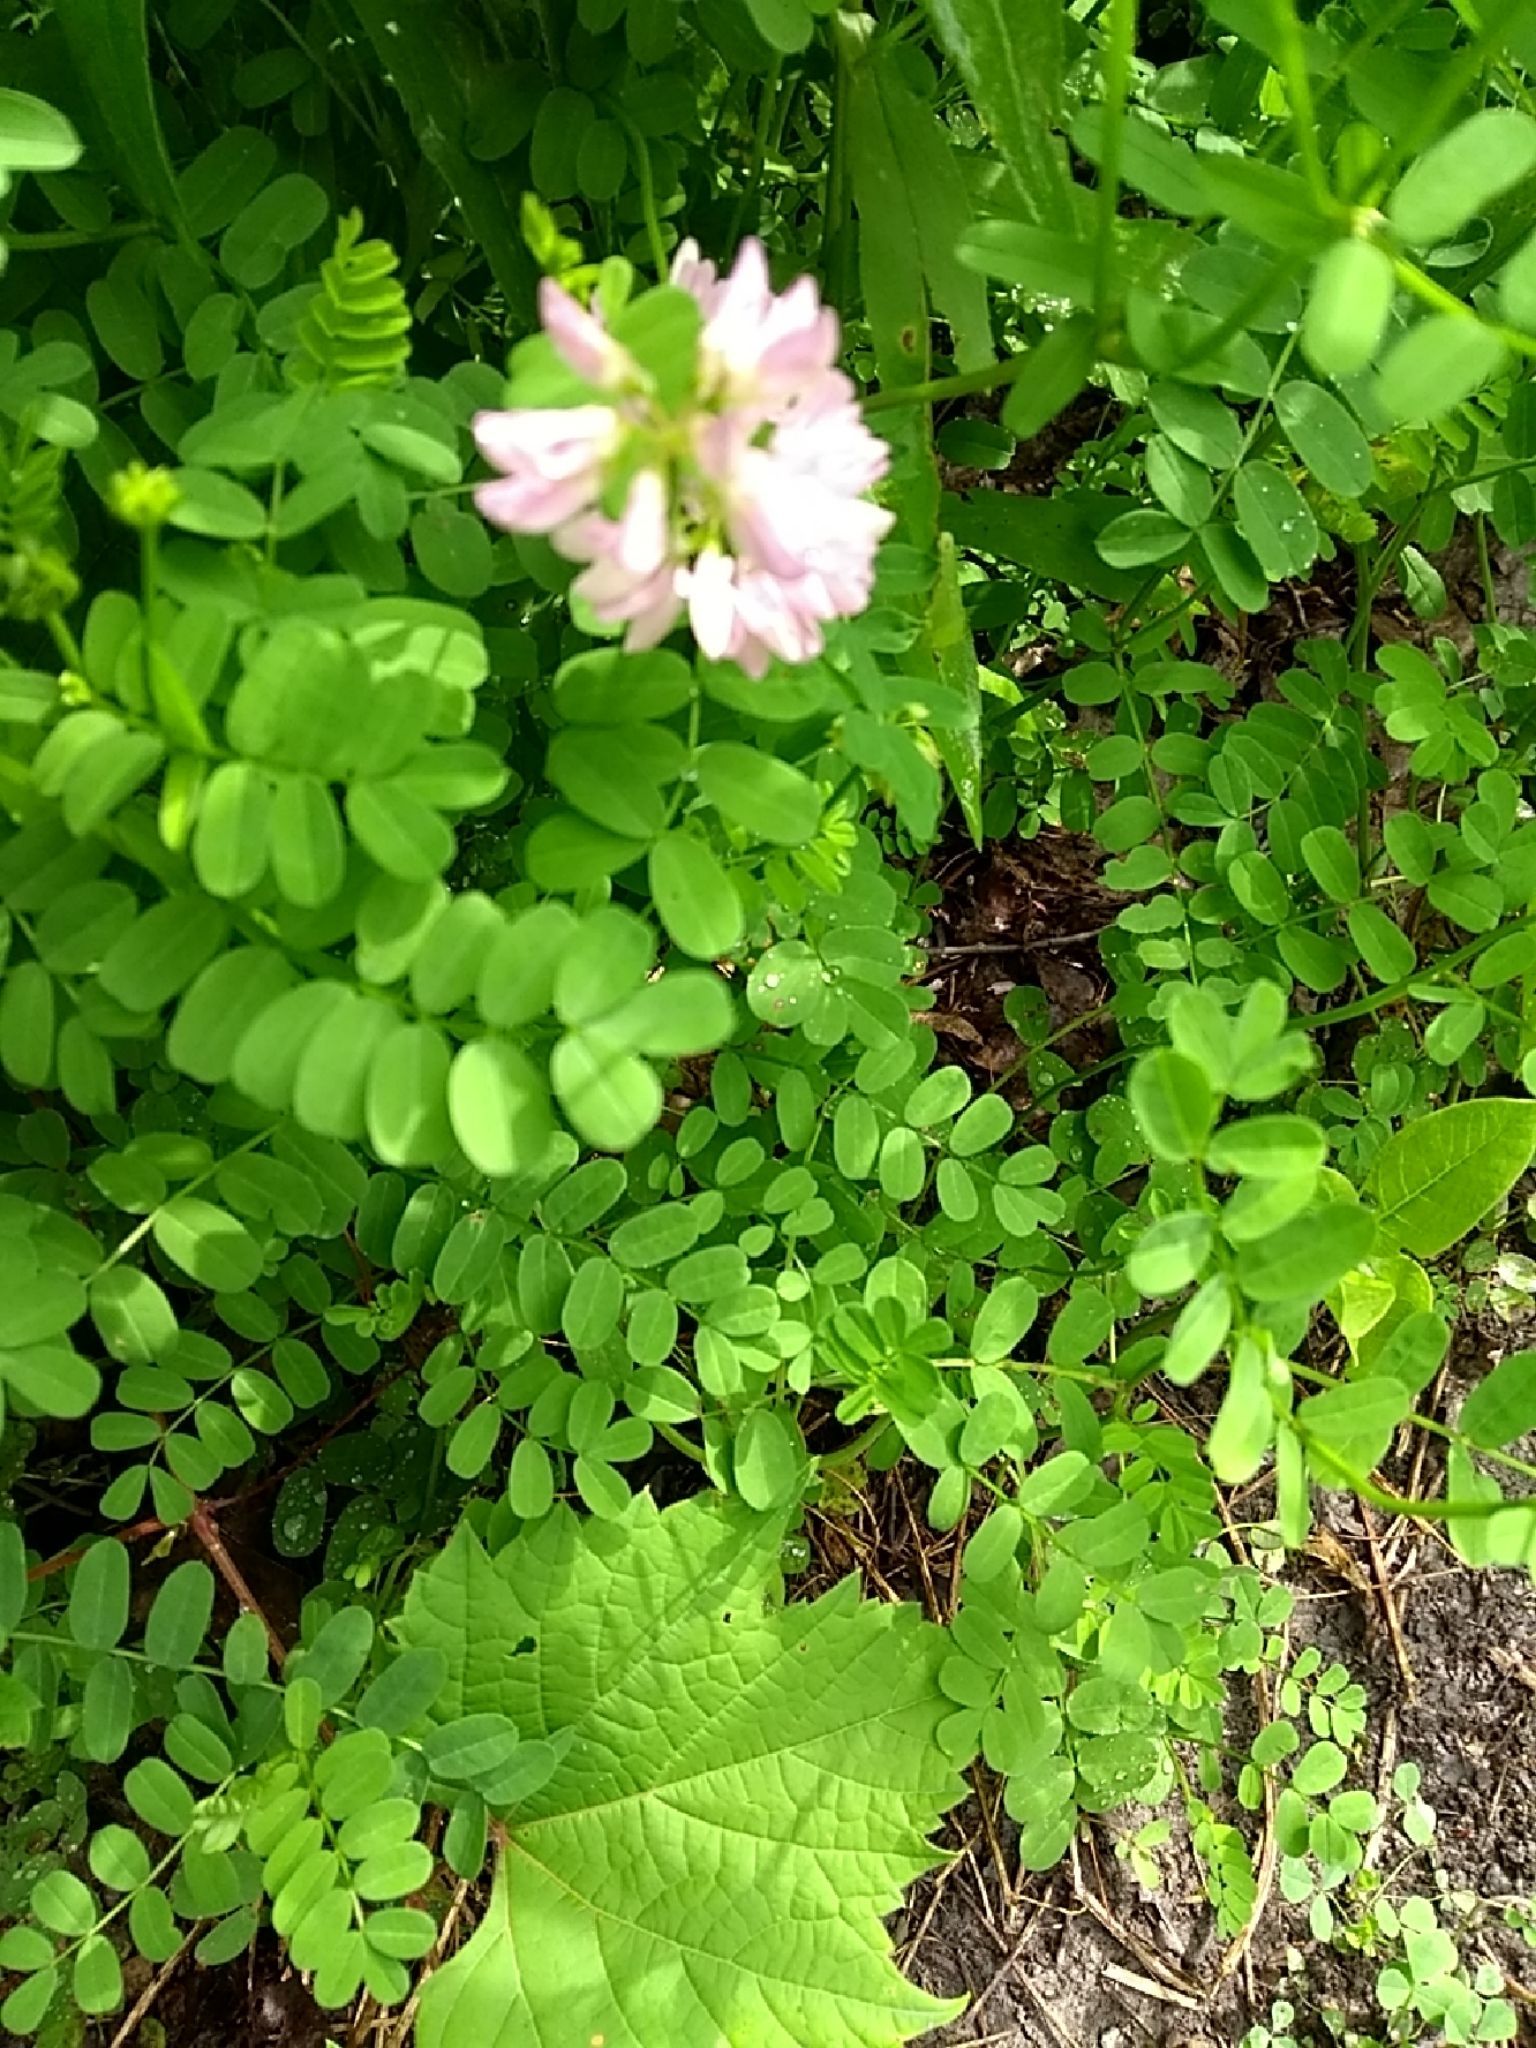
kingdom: Plantae
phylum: Tracheophyta
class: Magnoliopsida
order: Fabales
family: Fabaceae
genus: Coronilla
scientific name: Coronilla varia
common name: Crownvetch
